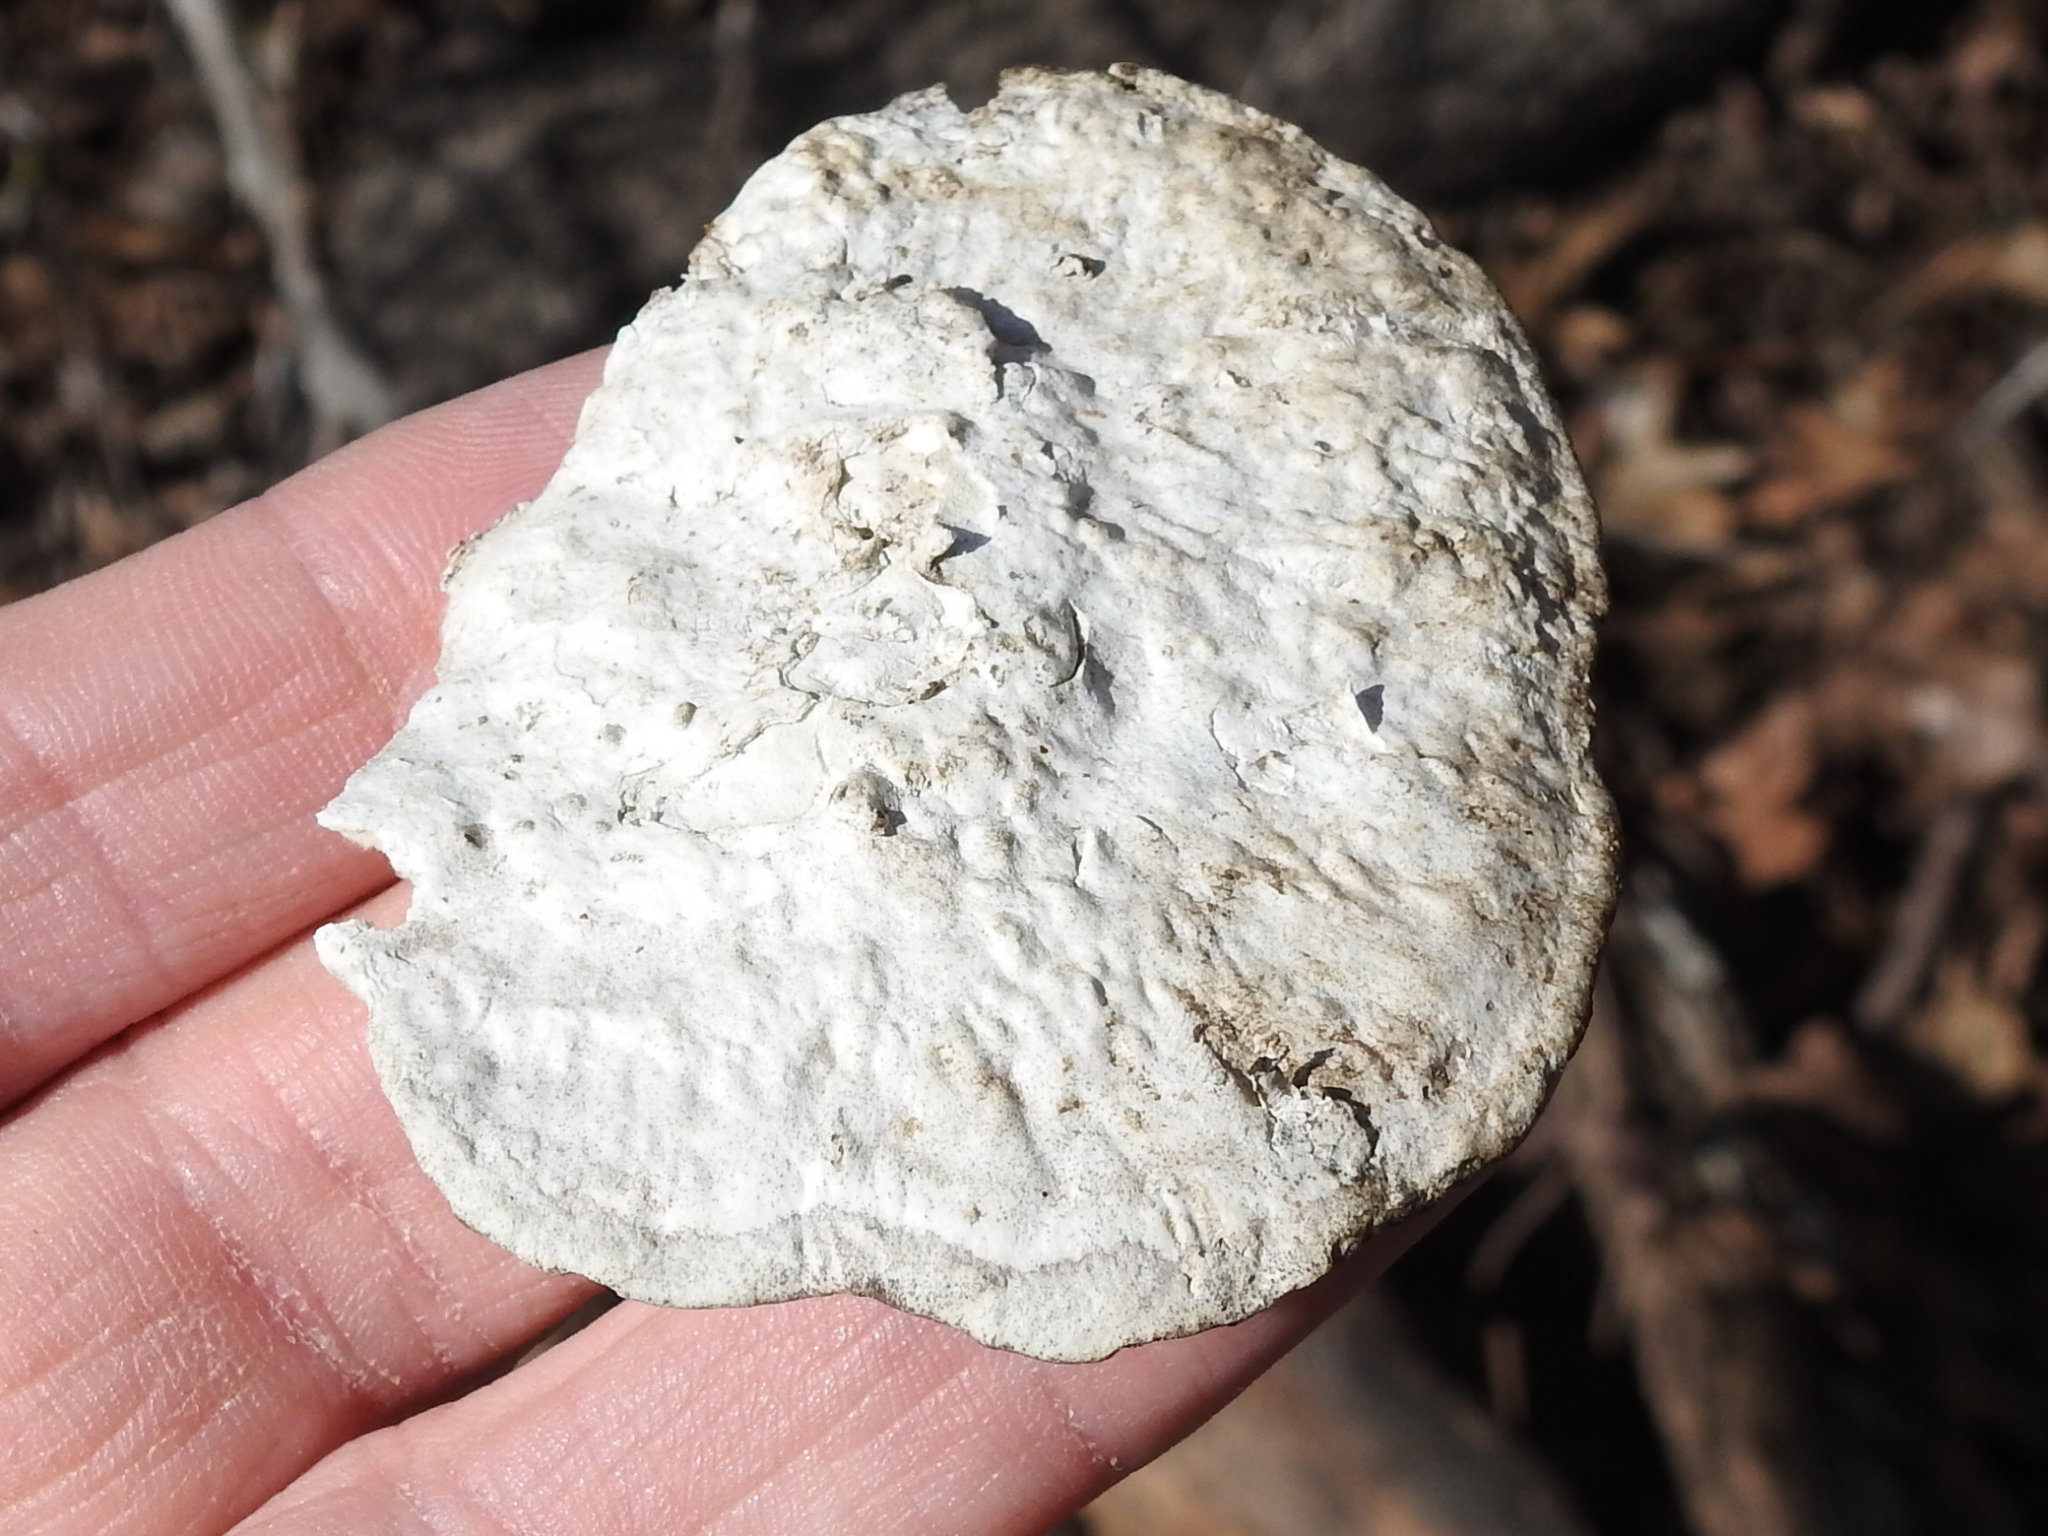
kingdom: Fungi
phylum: Basidiomycota
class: Agaricomycetes
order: Polyporales
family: Polyporaceae
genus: Trametes
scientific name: Trametes
